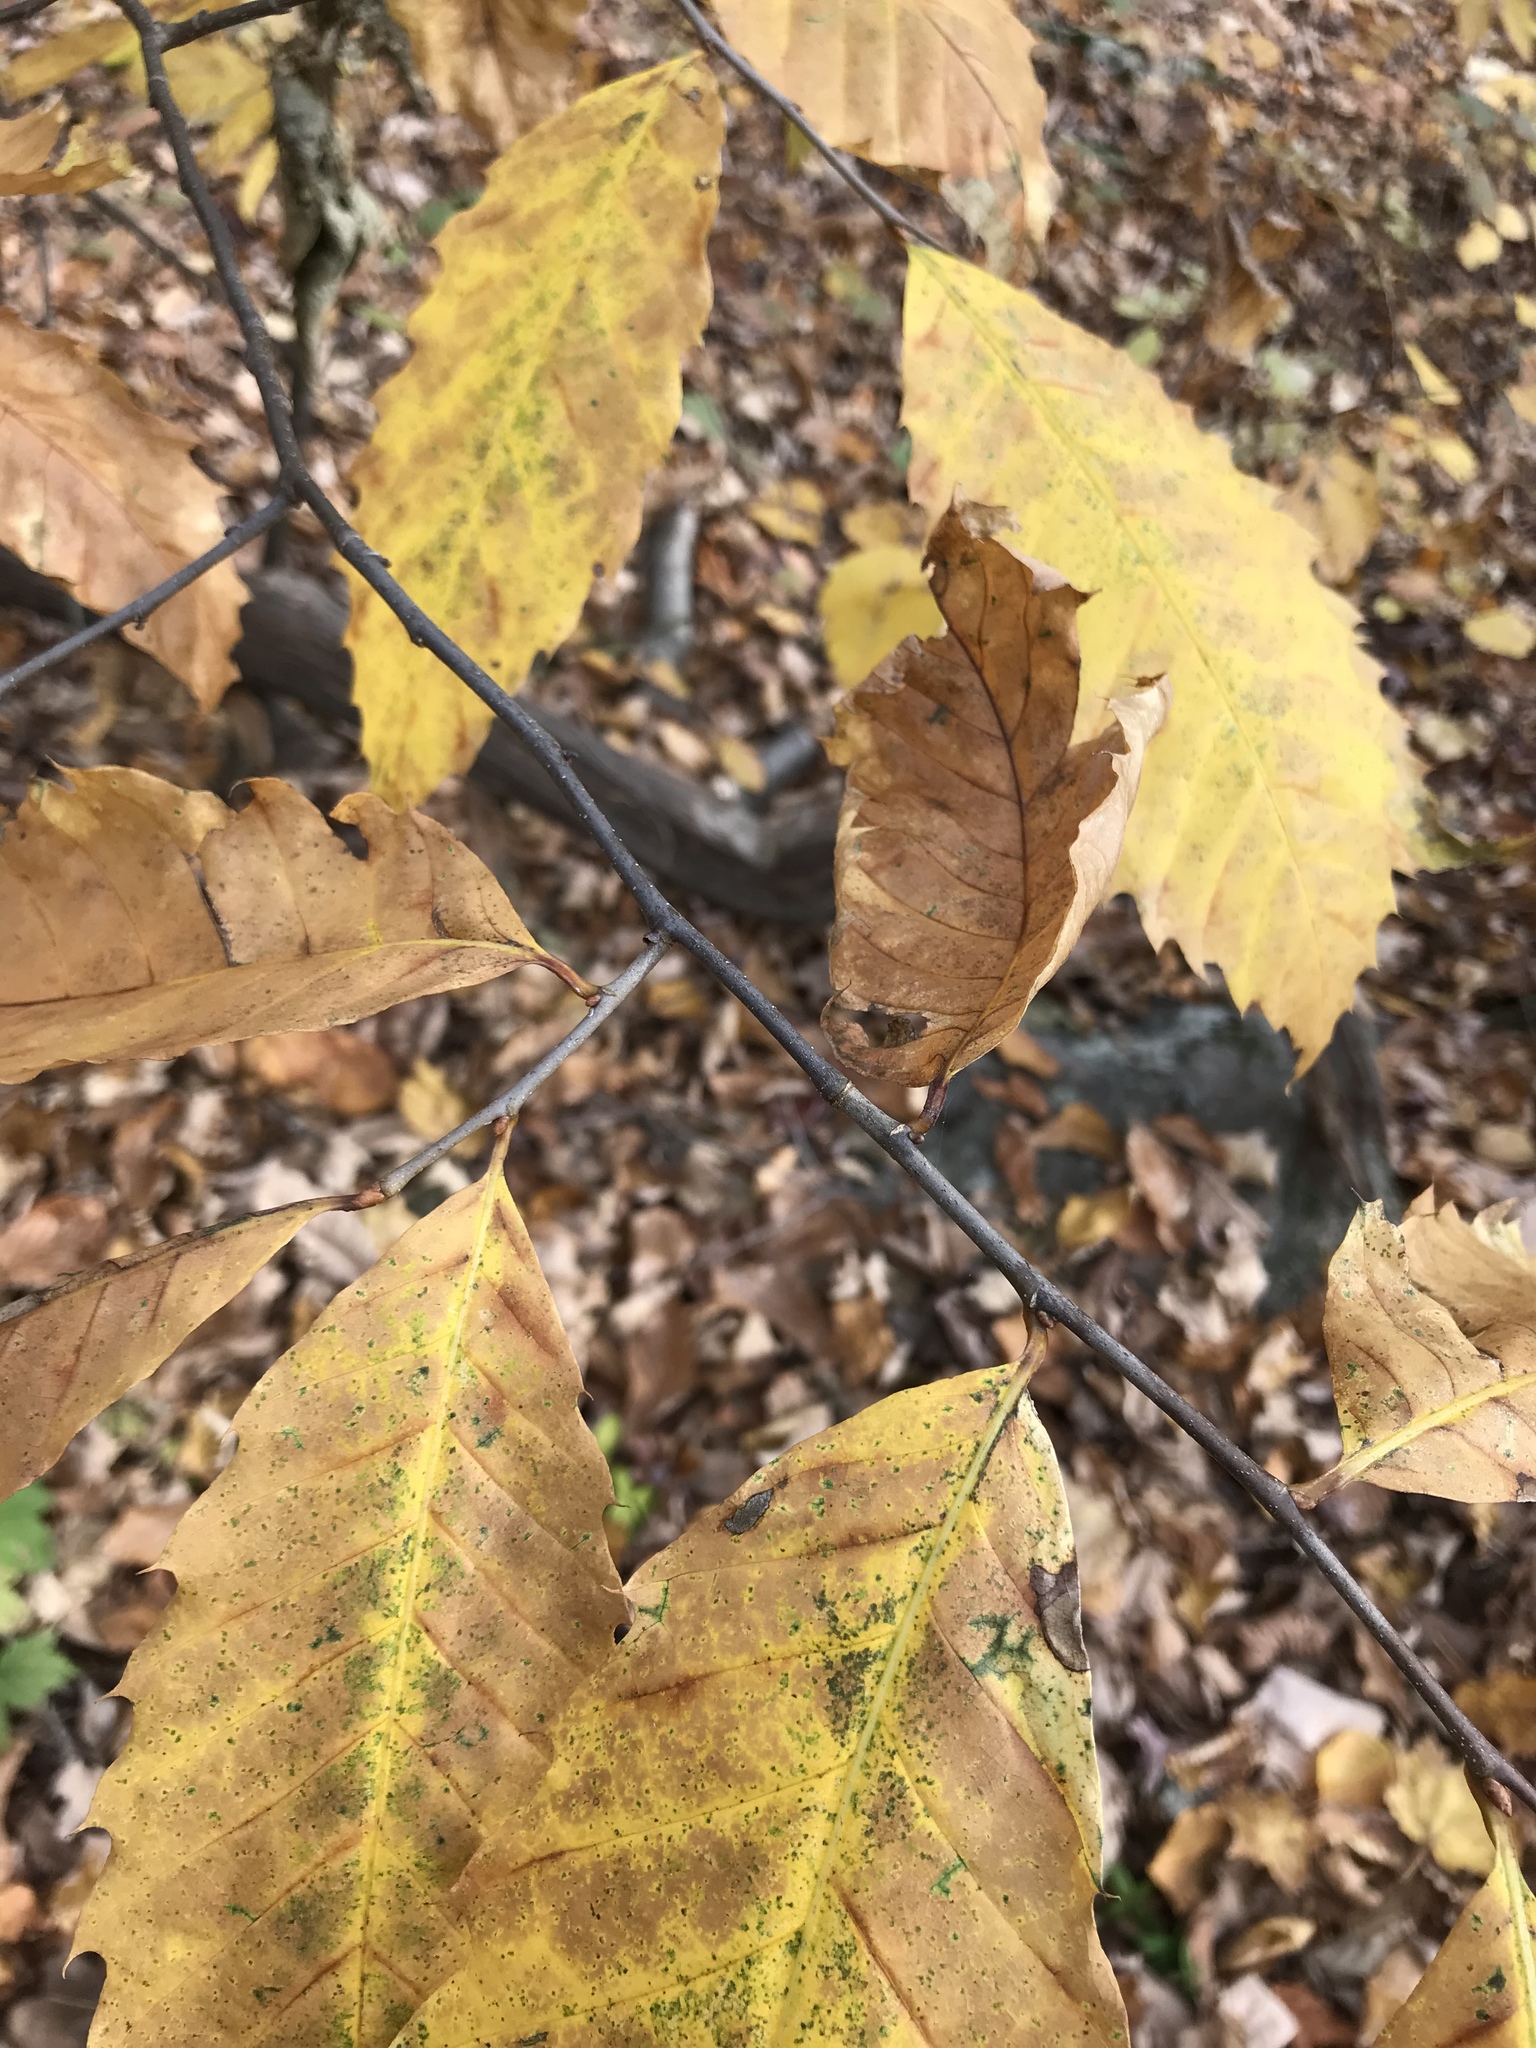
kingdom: Plantae
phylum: Tracheophyta
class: Magnoliopsida
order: Fagales
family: Fagaceae
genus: Castanea
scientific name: Castanea dentata
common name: American chestnut
